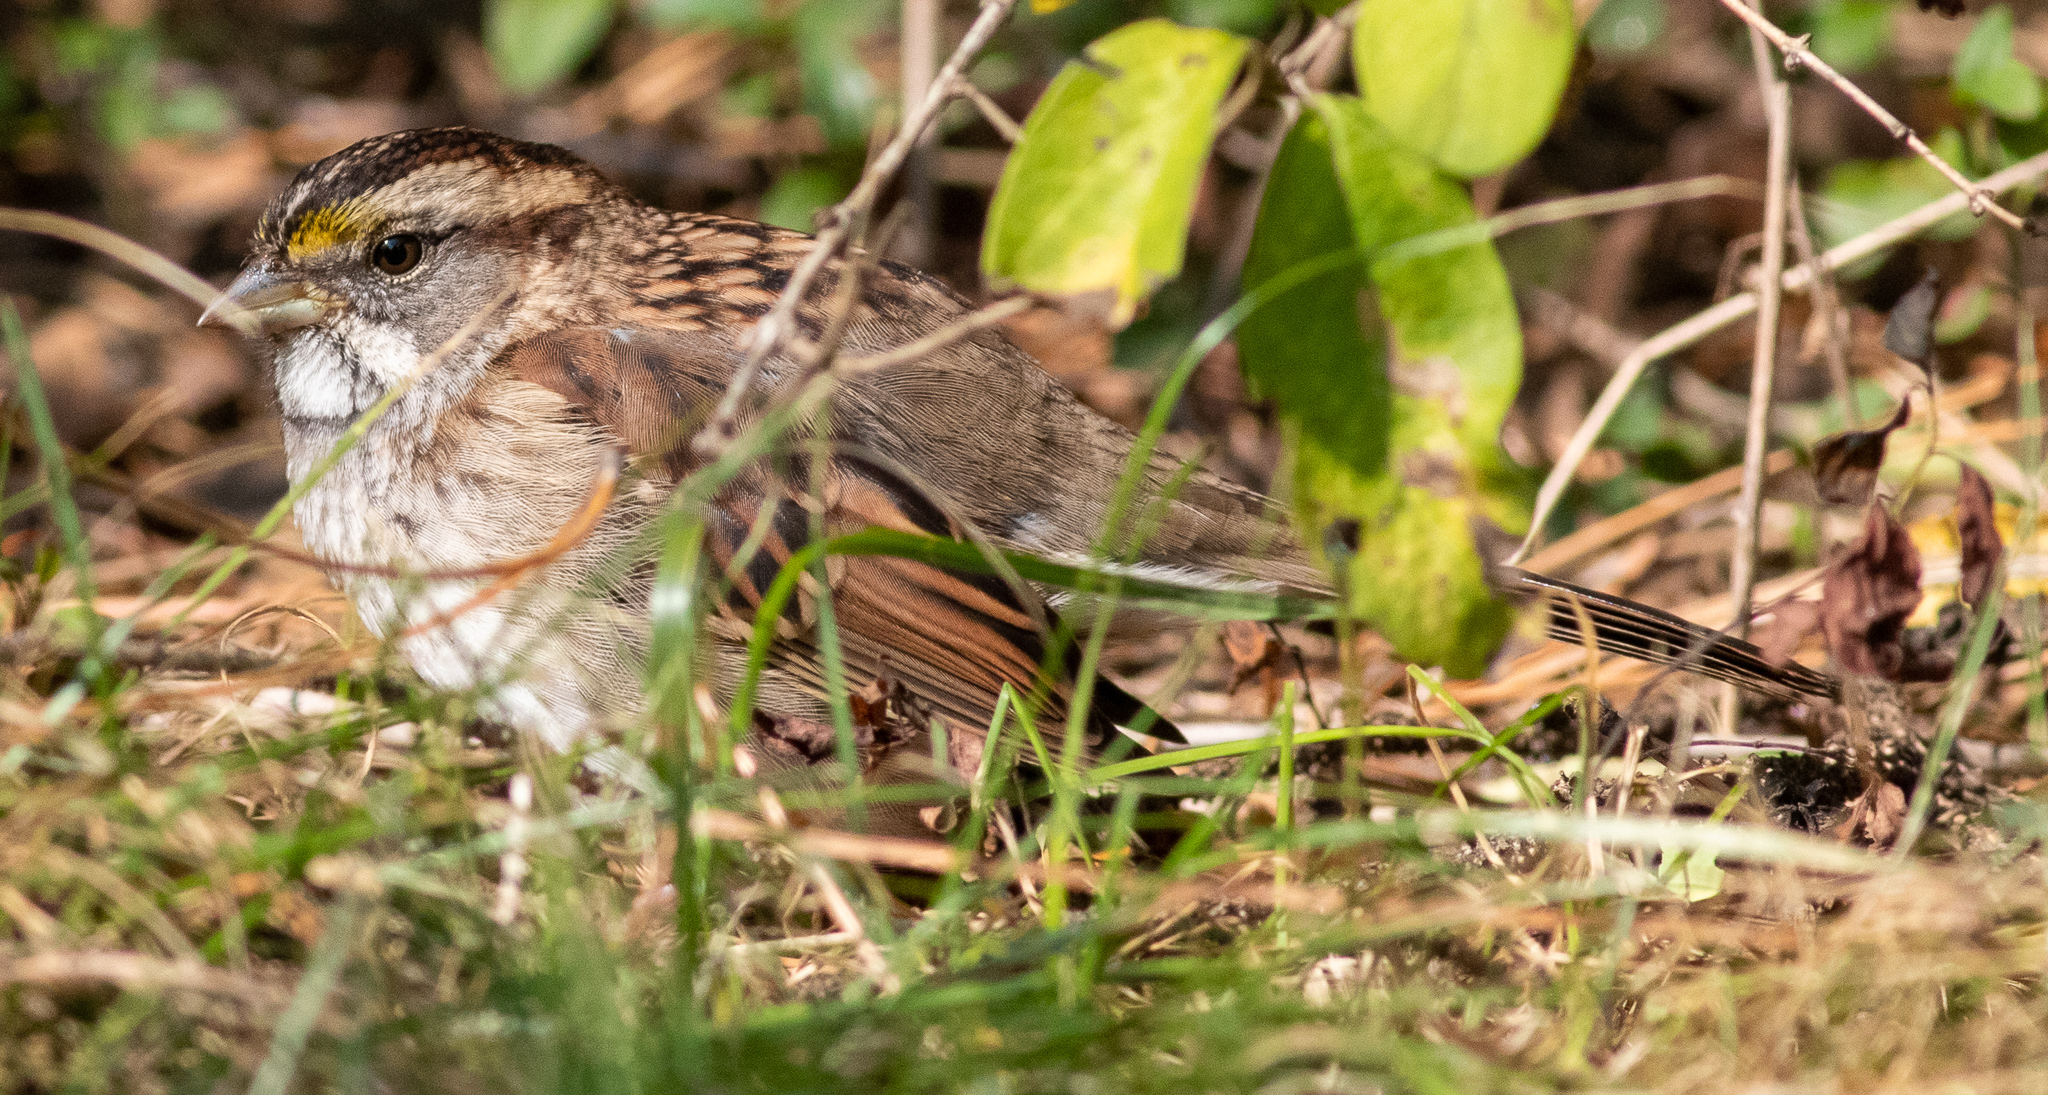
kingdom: Animalia
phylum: Chordata
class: Aves
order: Passeriformes
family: Passerellidae
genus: Zonotrichia
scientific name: Zonotrichia albicollis
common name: White-throated sparrow
